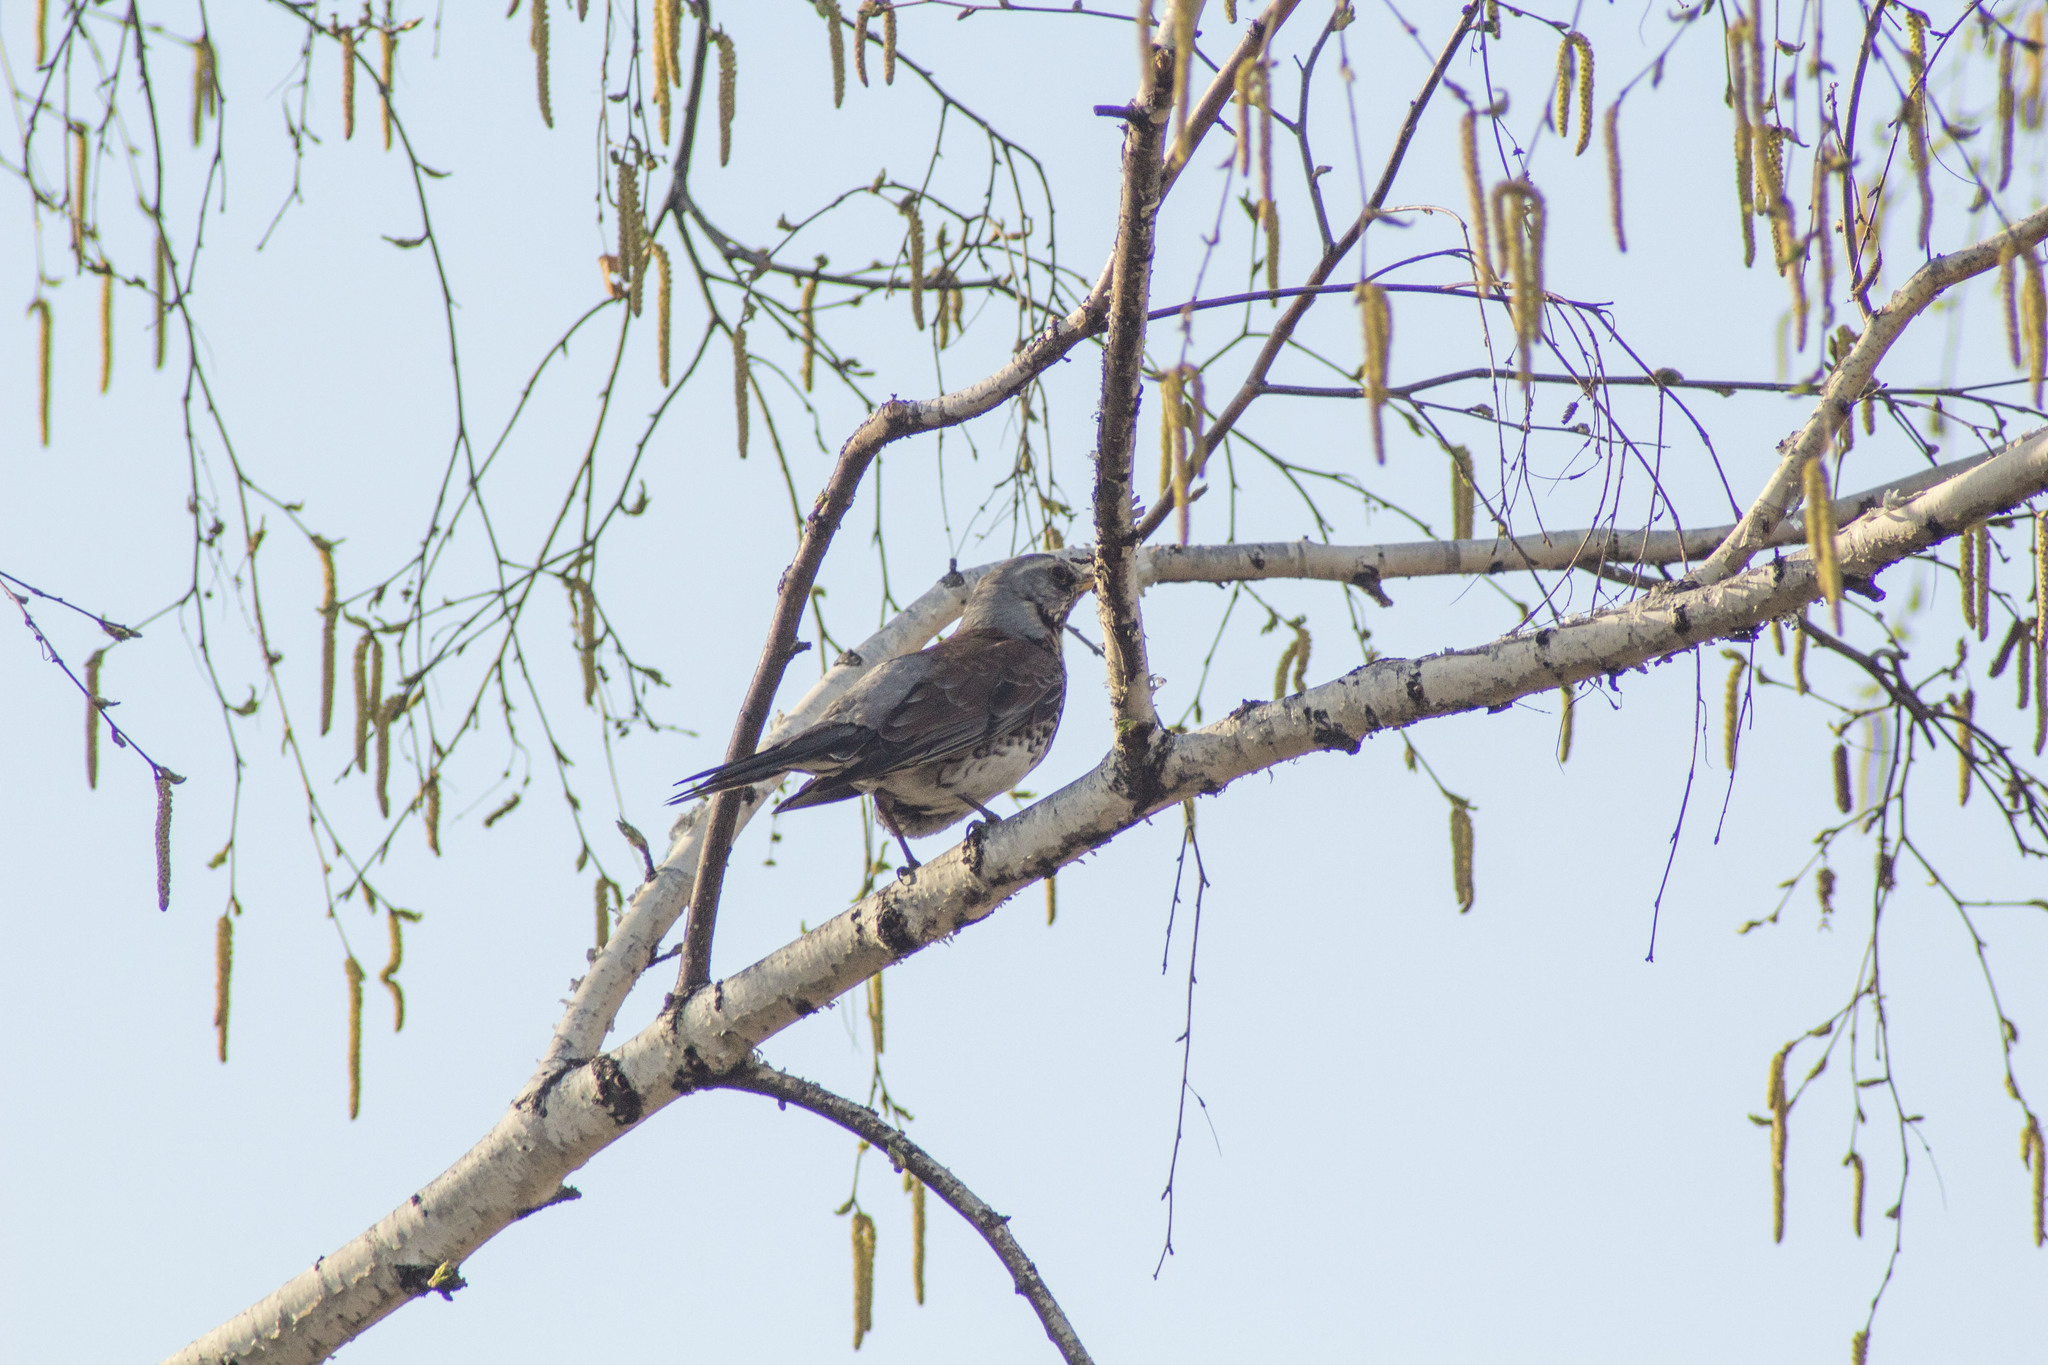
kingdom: Animalia
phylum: Chordata
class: Aves
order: Passeriformes
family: Turdidae
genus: Turdus
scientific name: Turdus pilaris
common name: Fieldfare
